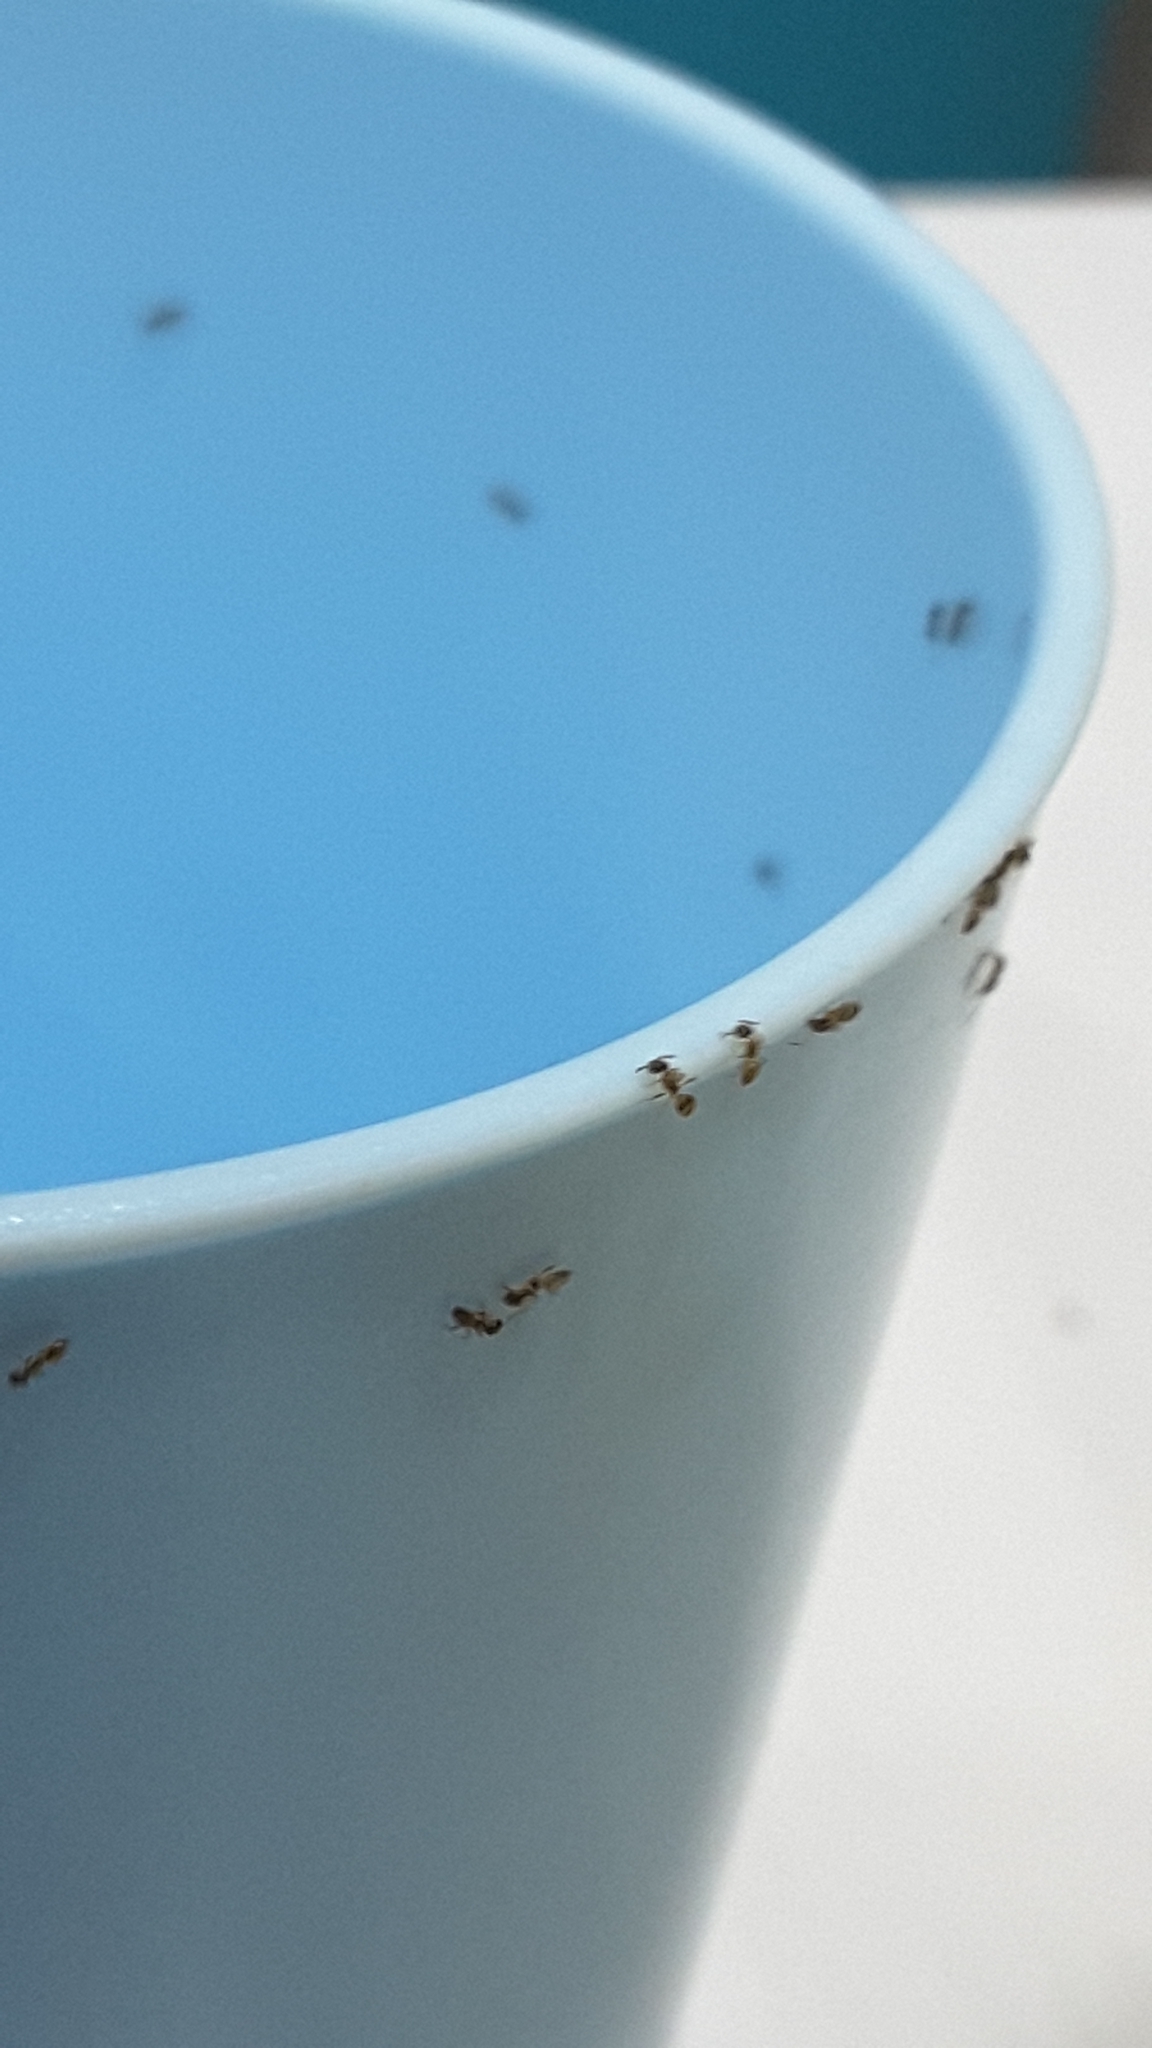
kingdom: Animalia
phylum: Arthropoda
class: Insecta
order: Hymenoptera
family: Formicidae
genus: Tapinoma
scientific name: Tapinoma melanocephalum
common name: Ghost ant
